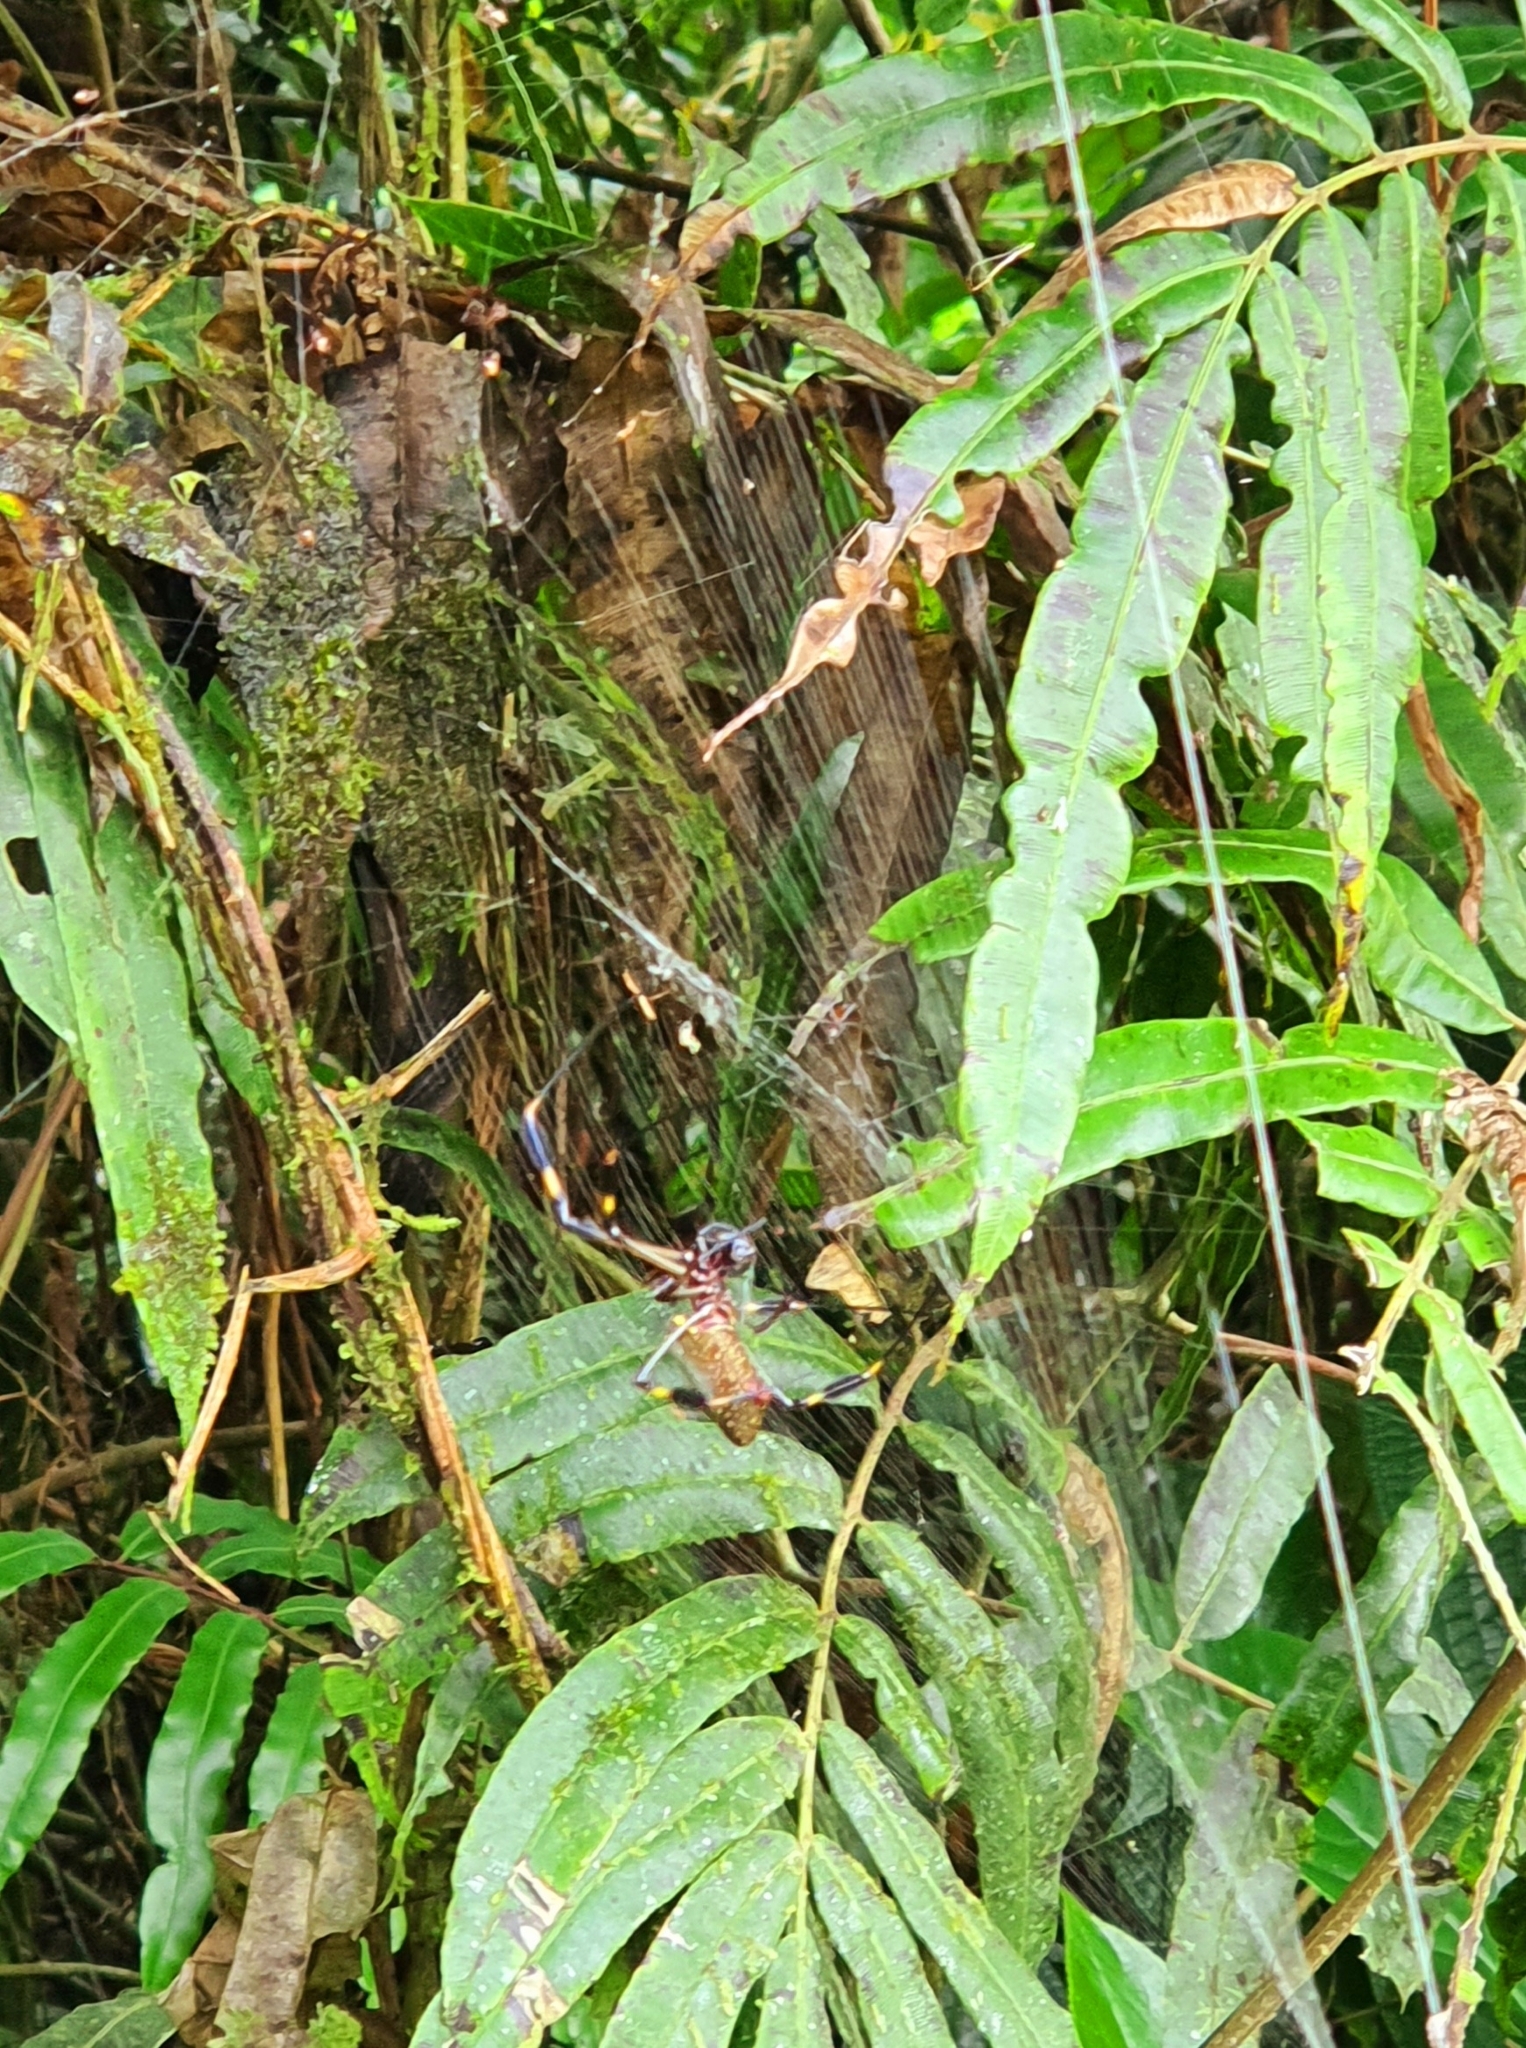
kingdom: Animalia
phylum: Arthropoda
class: Arachnida
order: Araneae
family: Araneidae
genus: Trichonephila
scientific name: Trichonephila clavipes
